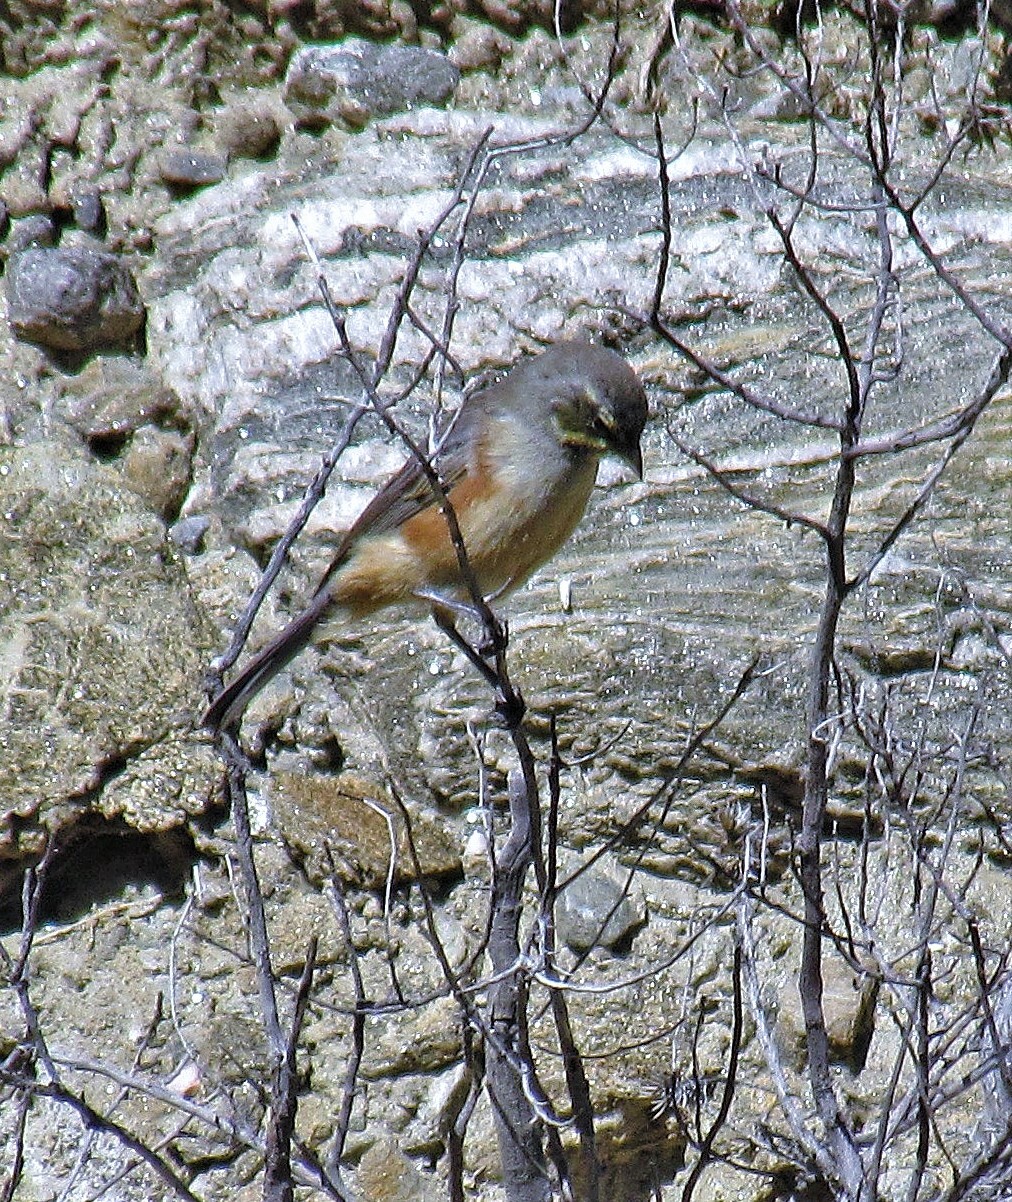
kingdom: Animalia
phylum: Chordata
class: Aves
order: Passeriformes
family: Thraupidae
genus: Poospizopsis
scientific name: Poospizopsis hypocondria
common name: Rufous-sided warbling-finch
